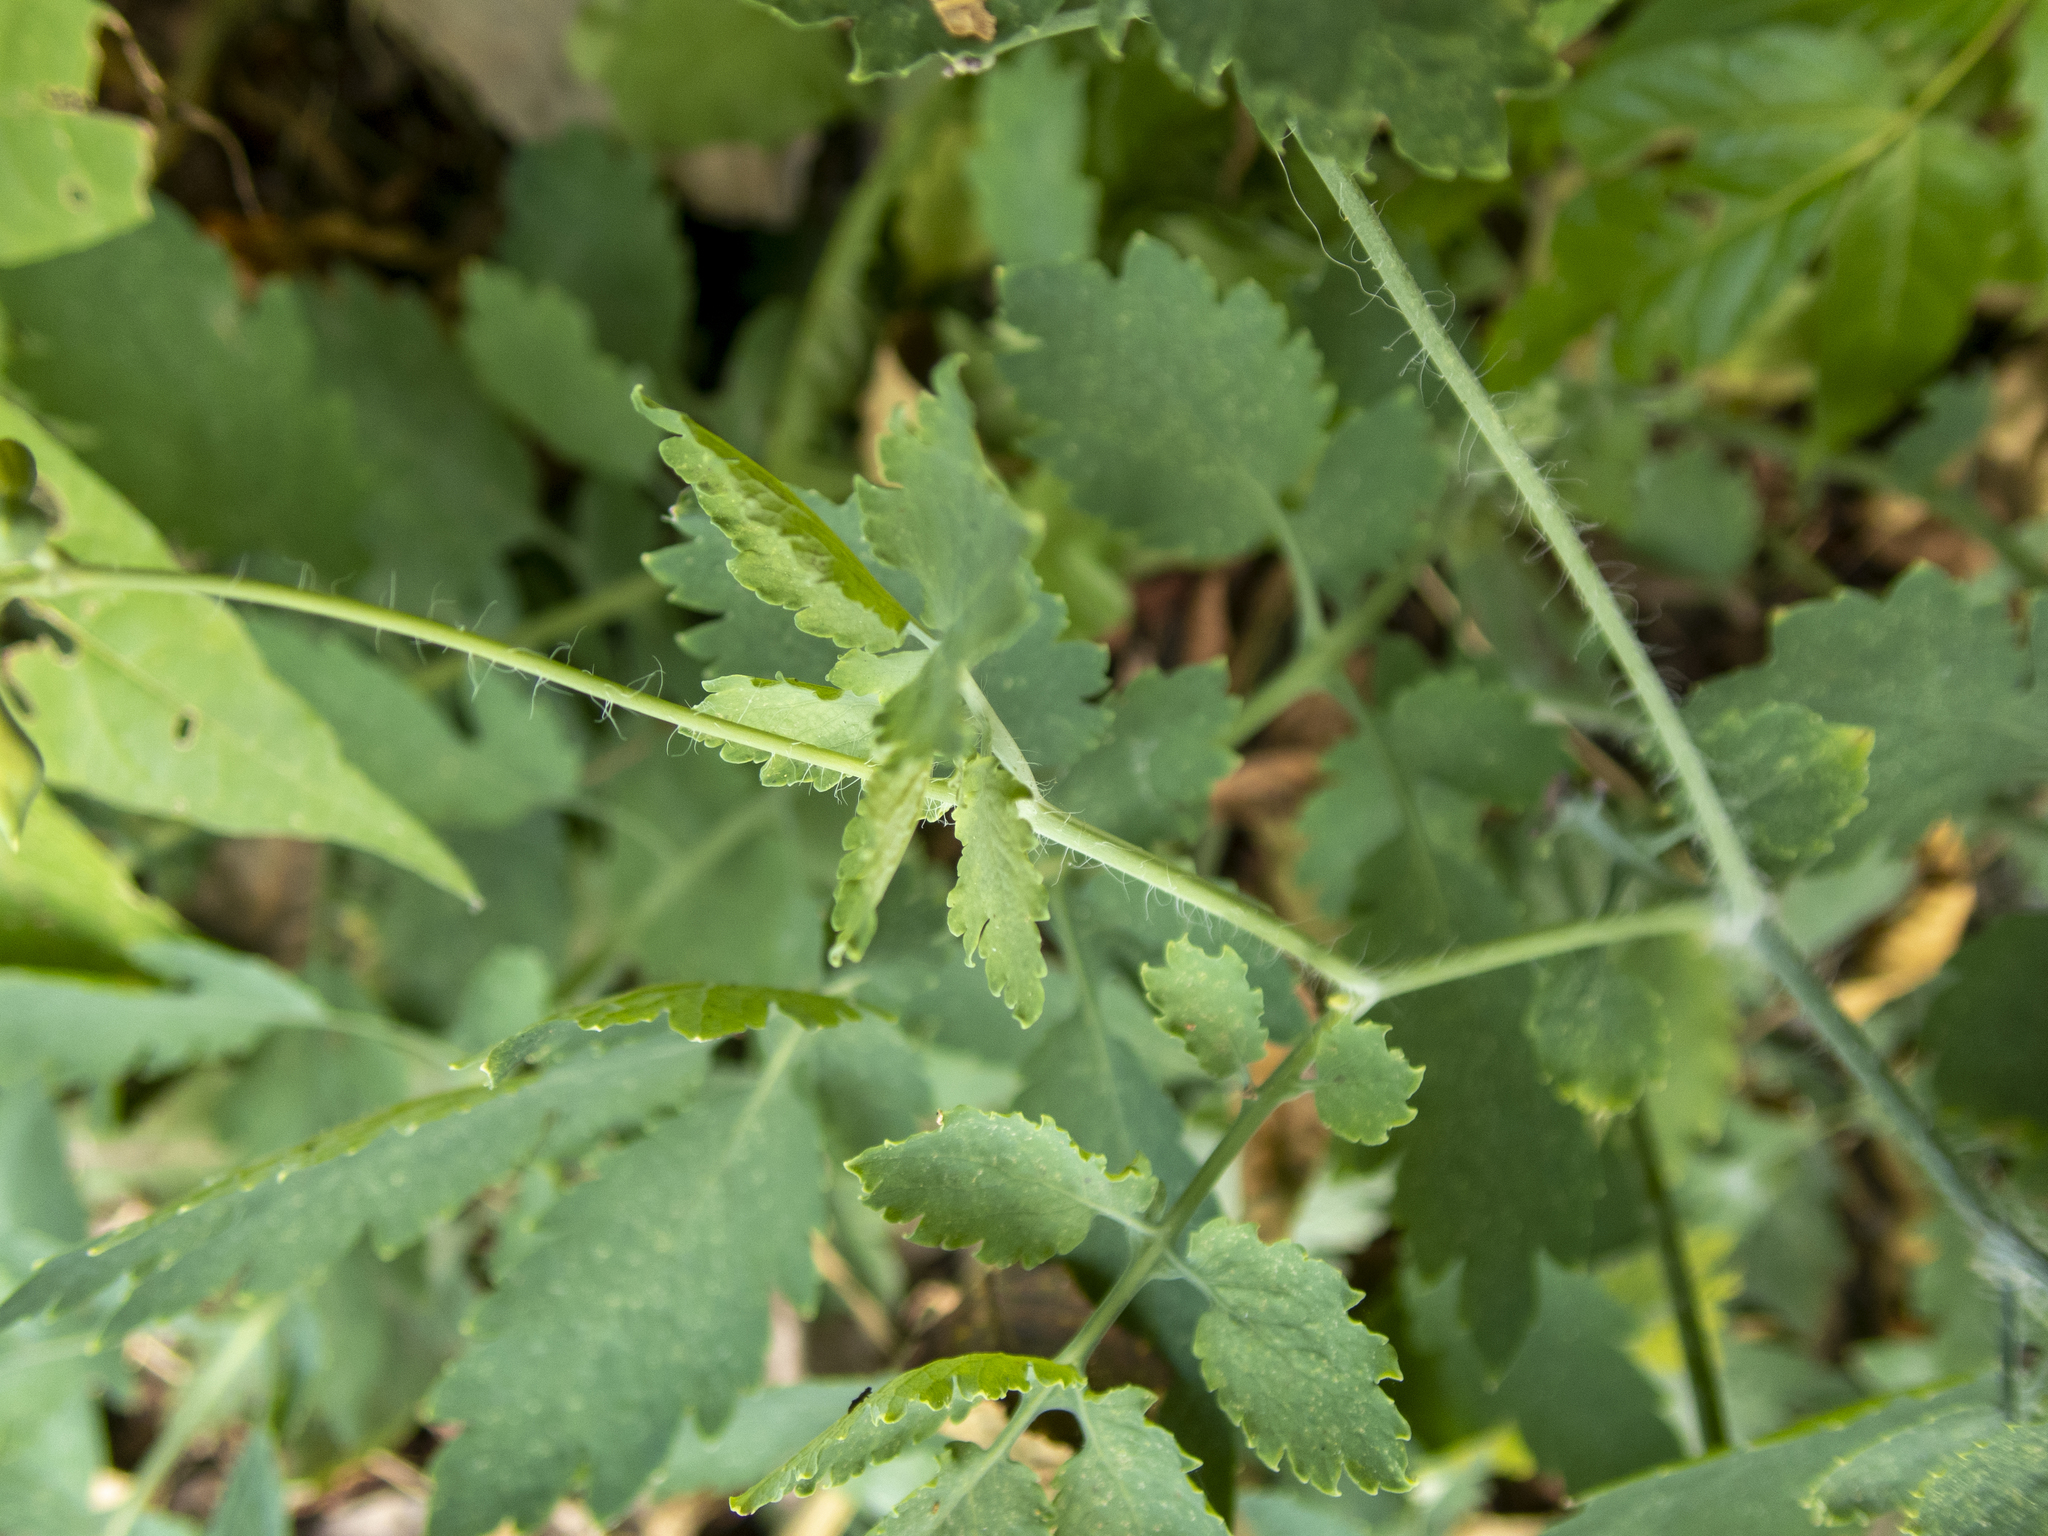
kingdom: Plantae
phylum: Tracheophyta
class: Magnoliopsida
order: Ranunculales
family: Papaveraceae
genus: Chelidonium
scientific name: Chelidonium majus
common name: Greater celandine
